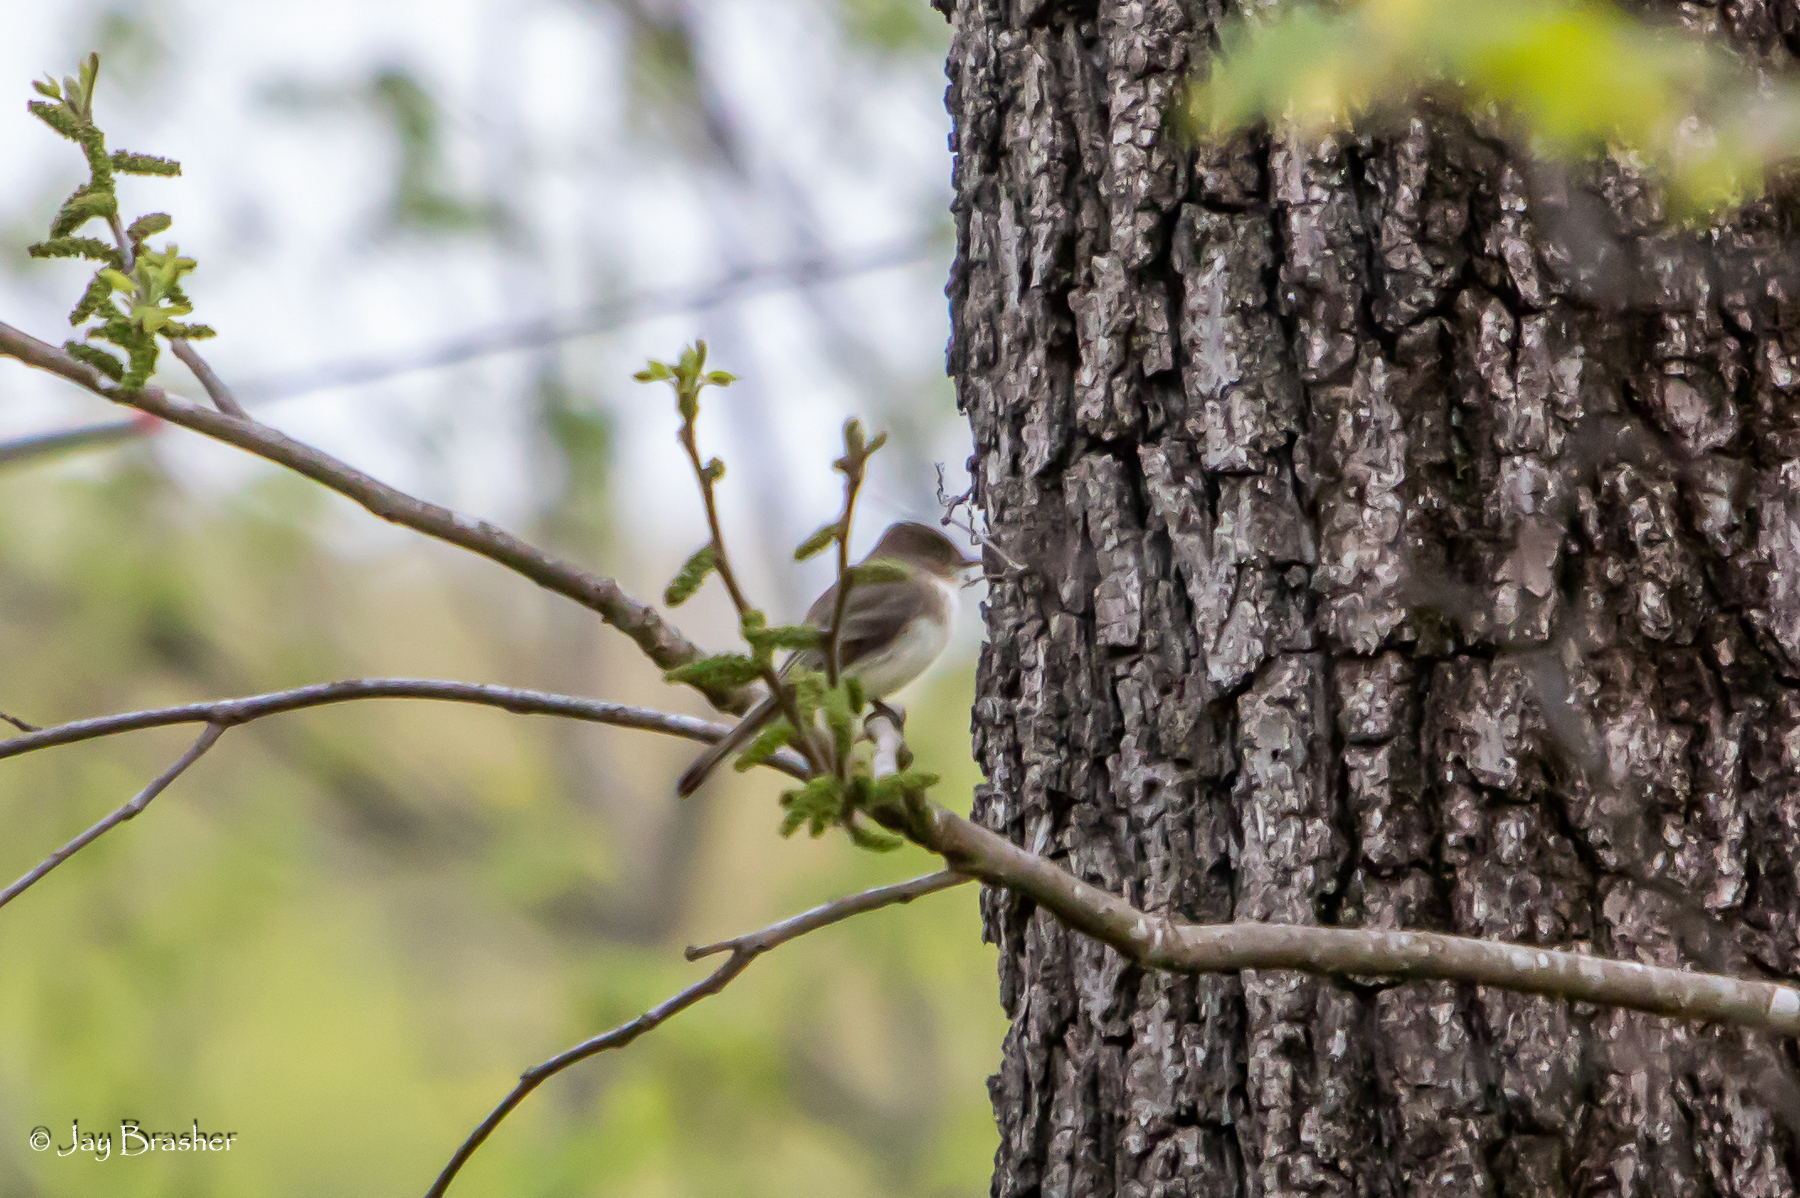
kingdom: Animalia
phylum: Chordata
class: Aves
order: Passeriformes
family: Tyrannidae
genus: Sayornis
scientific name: Sayornis phoebe
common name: Eastern phoebe
